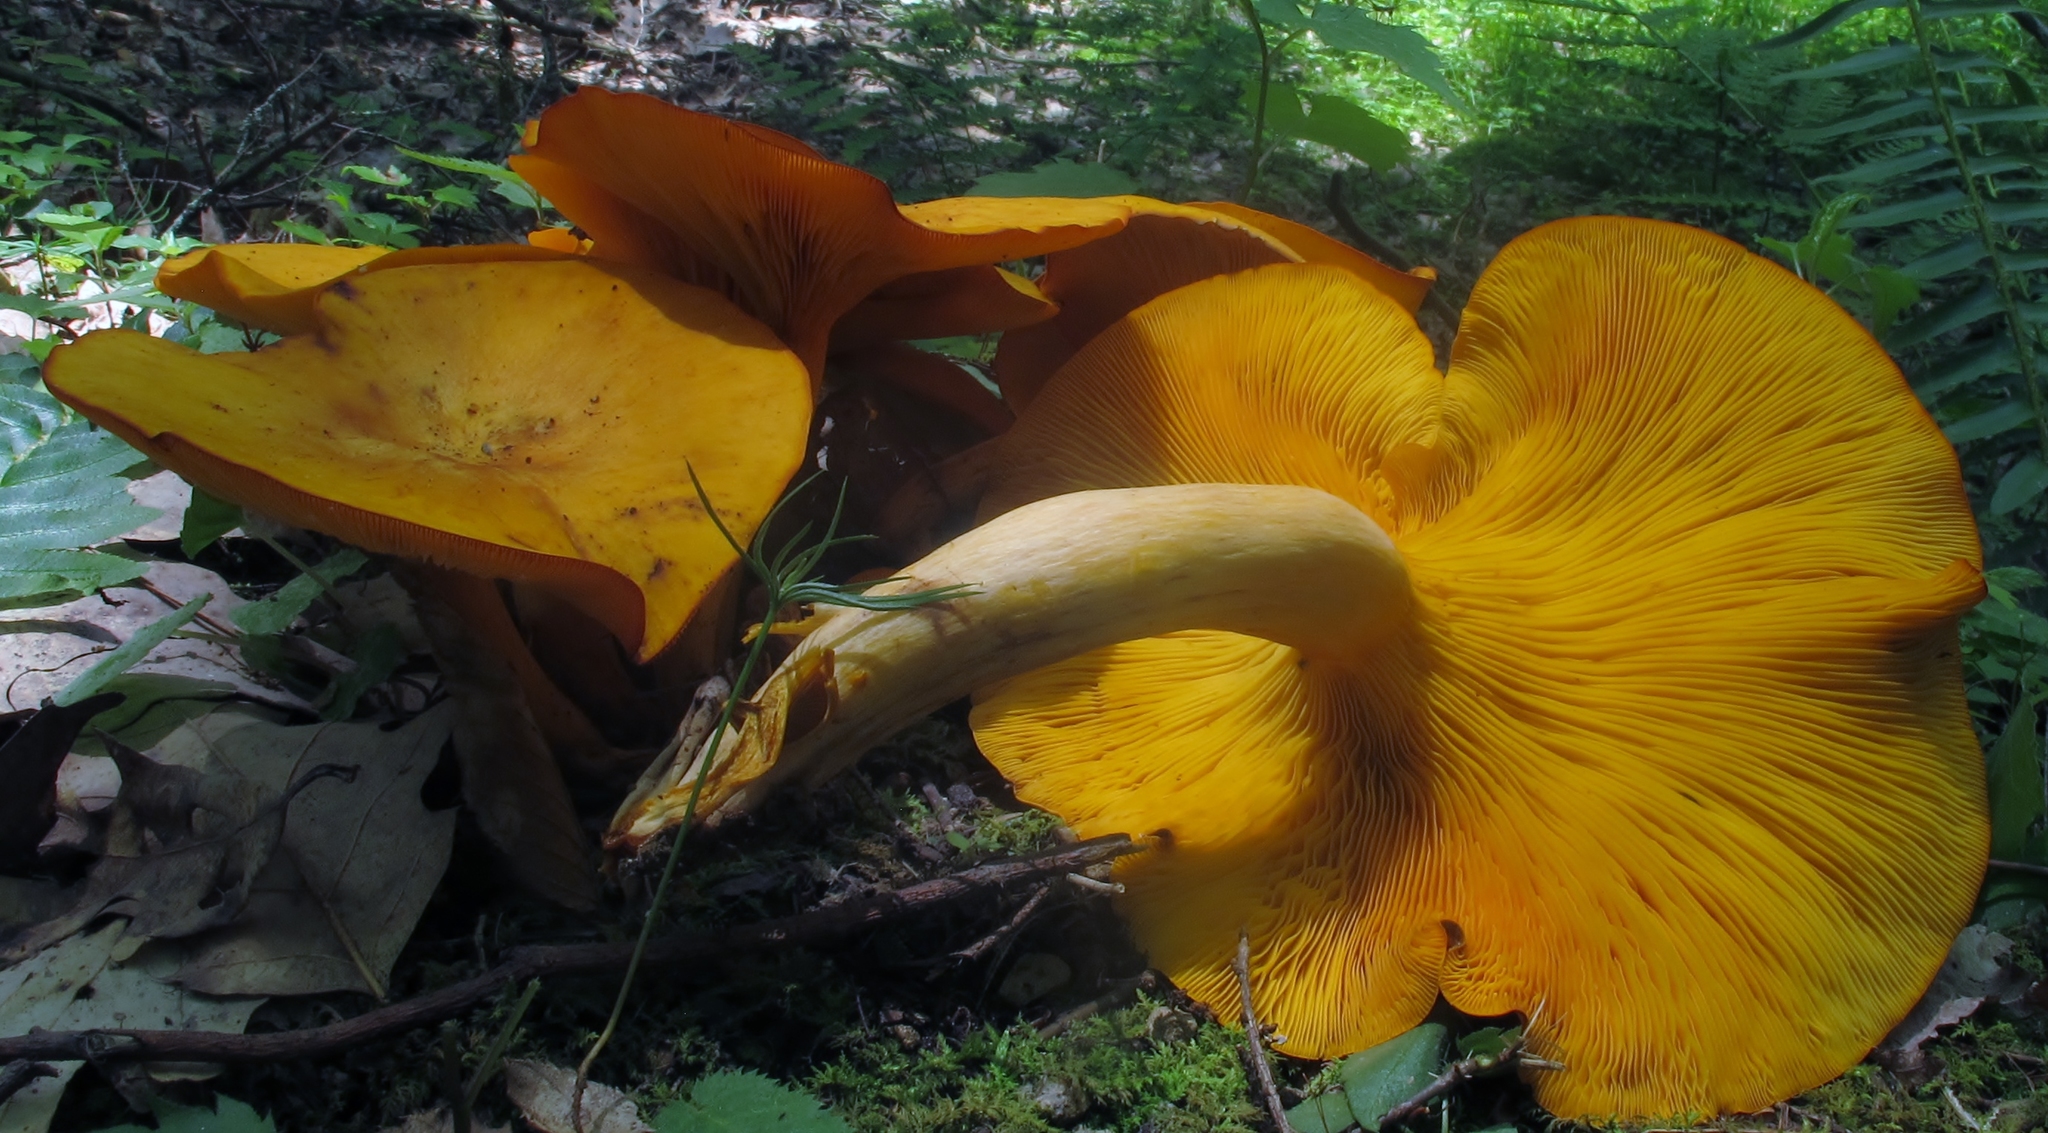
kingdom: Fungi
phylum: Basidiomycota
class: Agaricomycetes
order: Agaricales
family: Omphalotaceae
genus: Omphalotus
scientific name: Omphalotus illudens
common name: Jack o lantern
